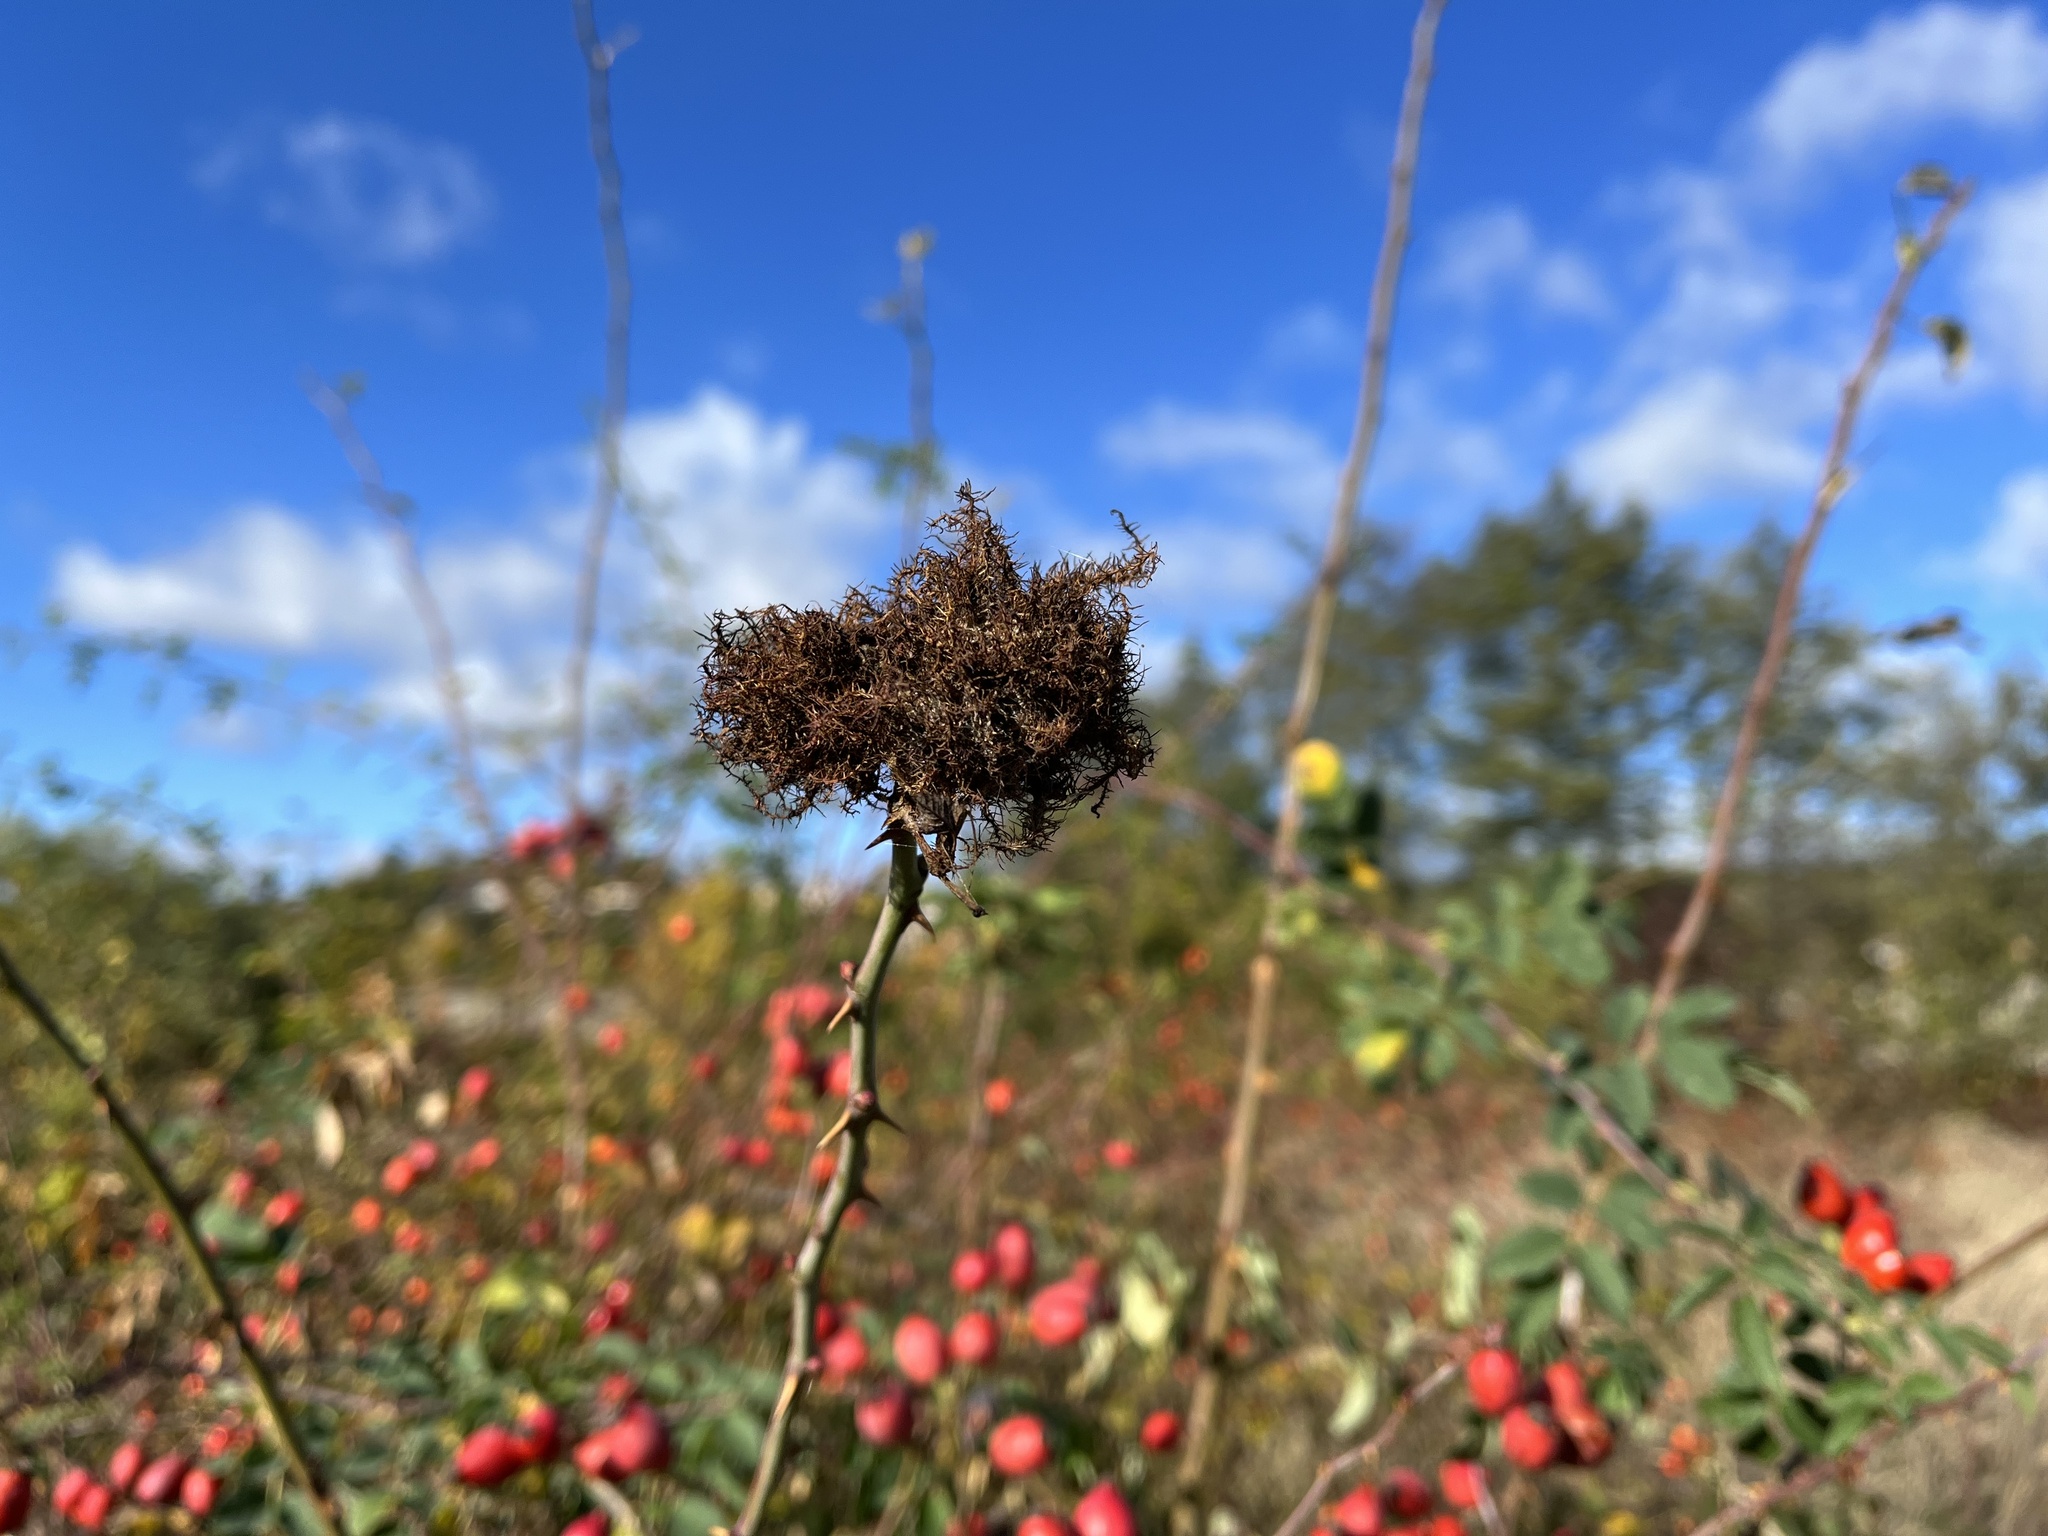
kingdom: Animalia
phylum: Arthropoda
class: Insecta
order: Hymenoptera
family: Cynipidae
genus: Diplolepis
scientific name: Diplolepis rosae
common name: Bedeguar gall
